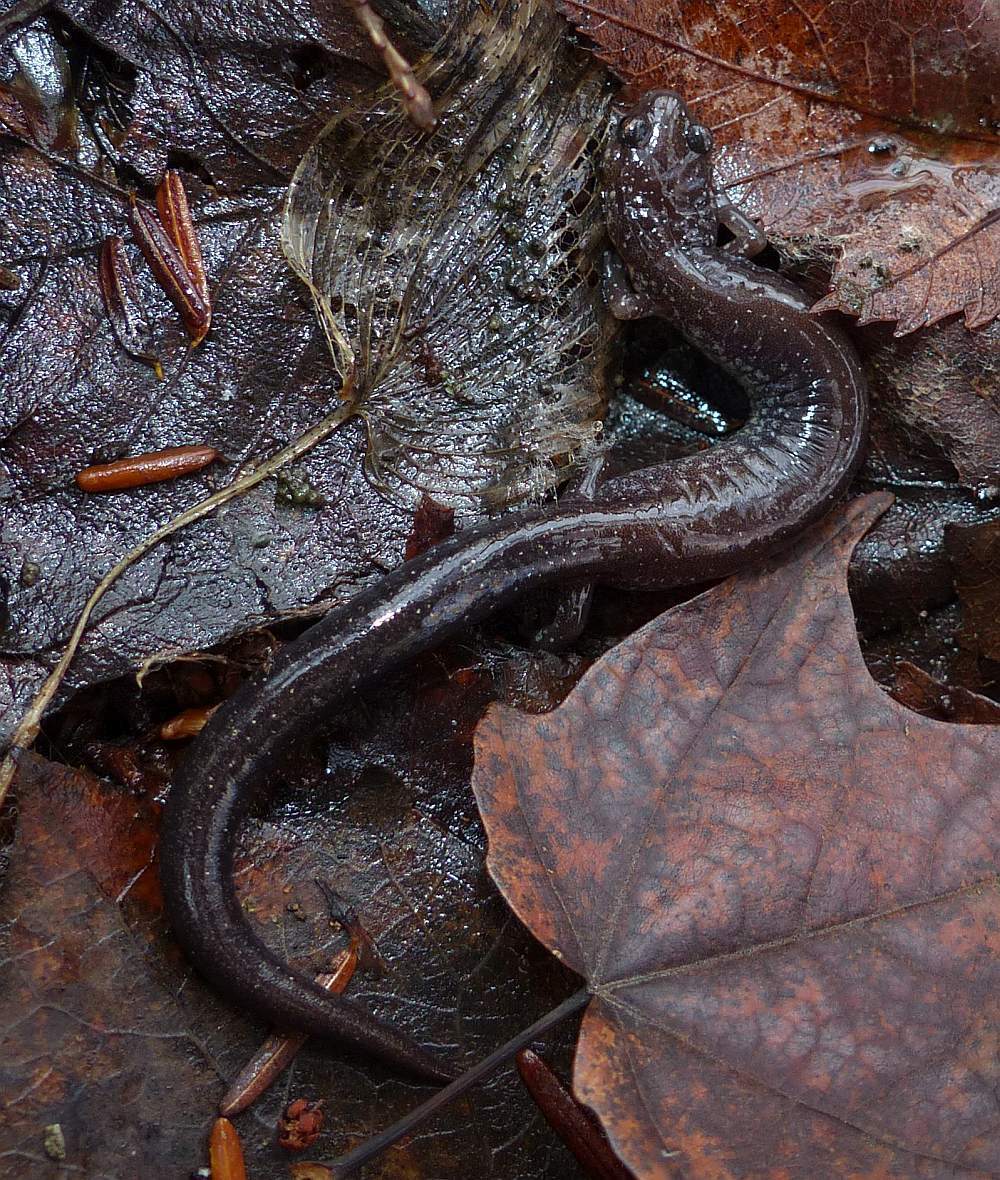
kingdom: Animalia
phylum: Chordata
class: Amphibia
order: Caudata
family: Plethodontidae
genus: Plethodon
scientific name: Plethodon cinereus
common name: Redback salamander
